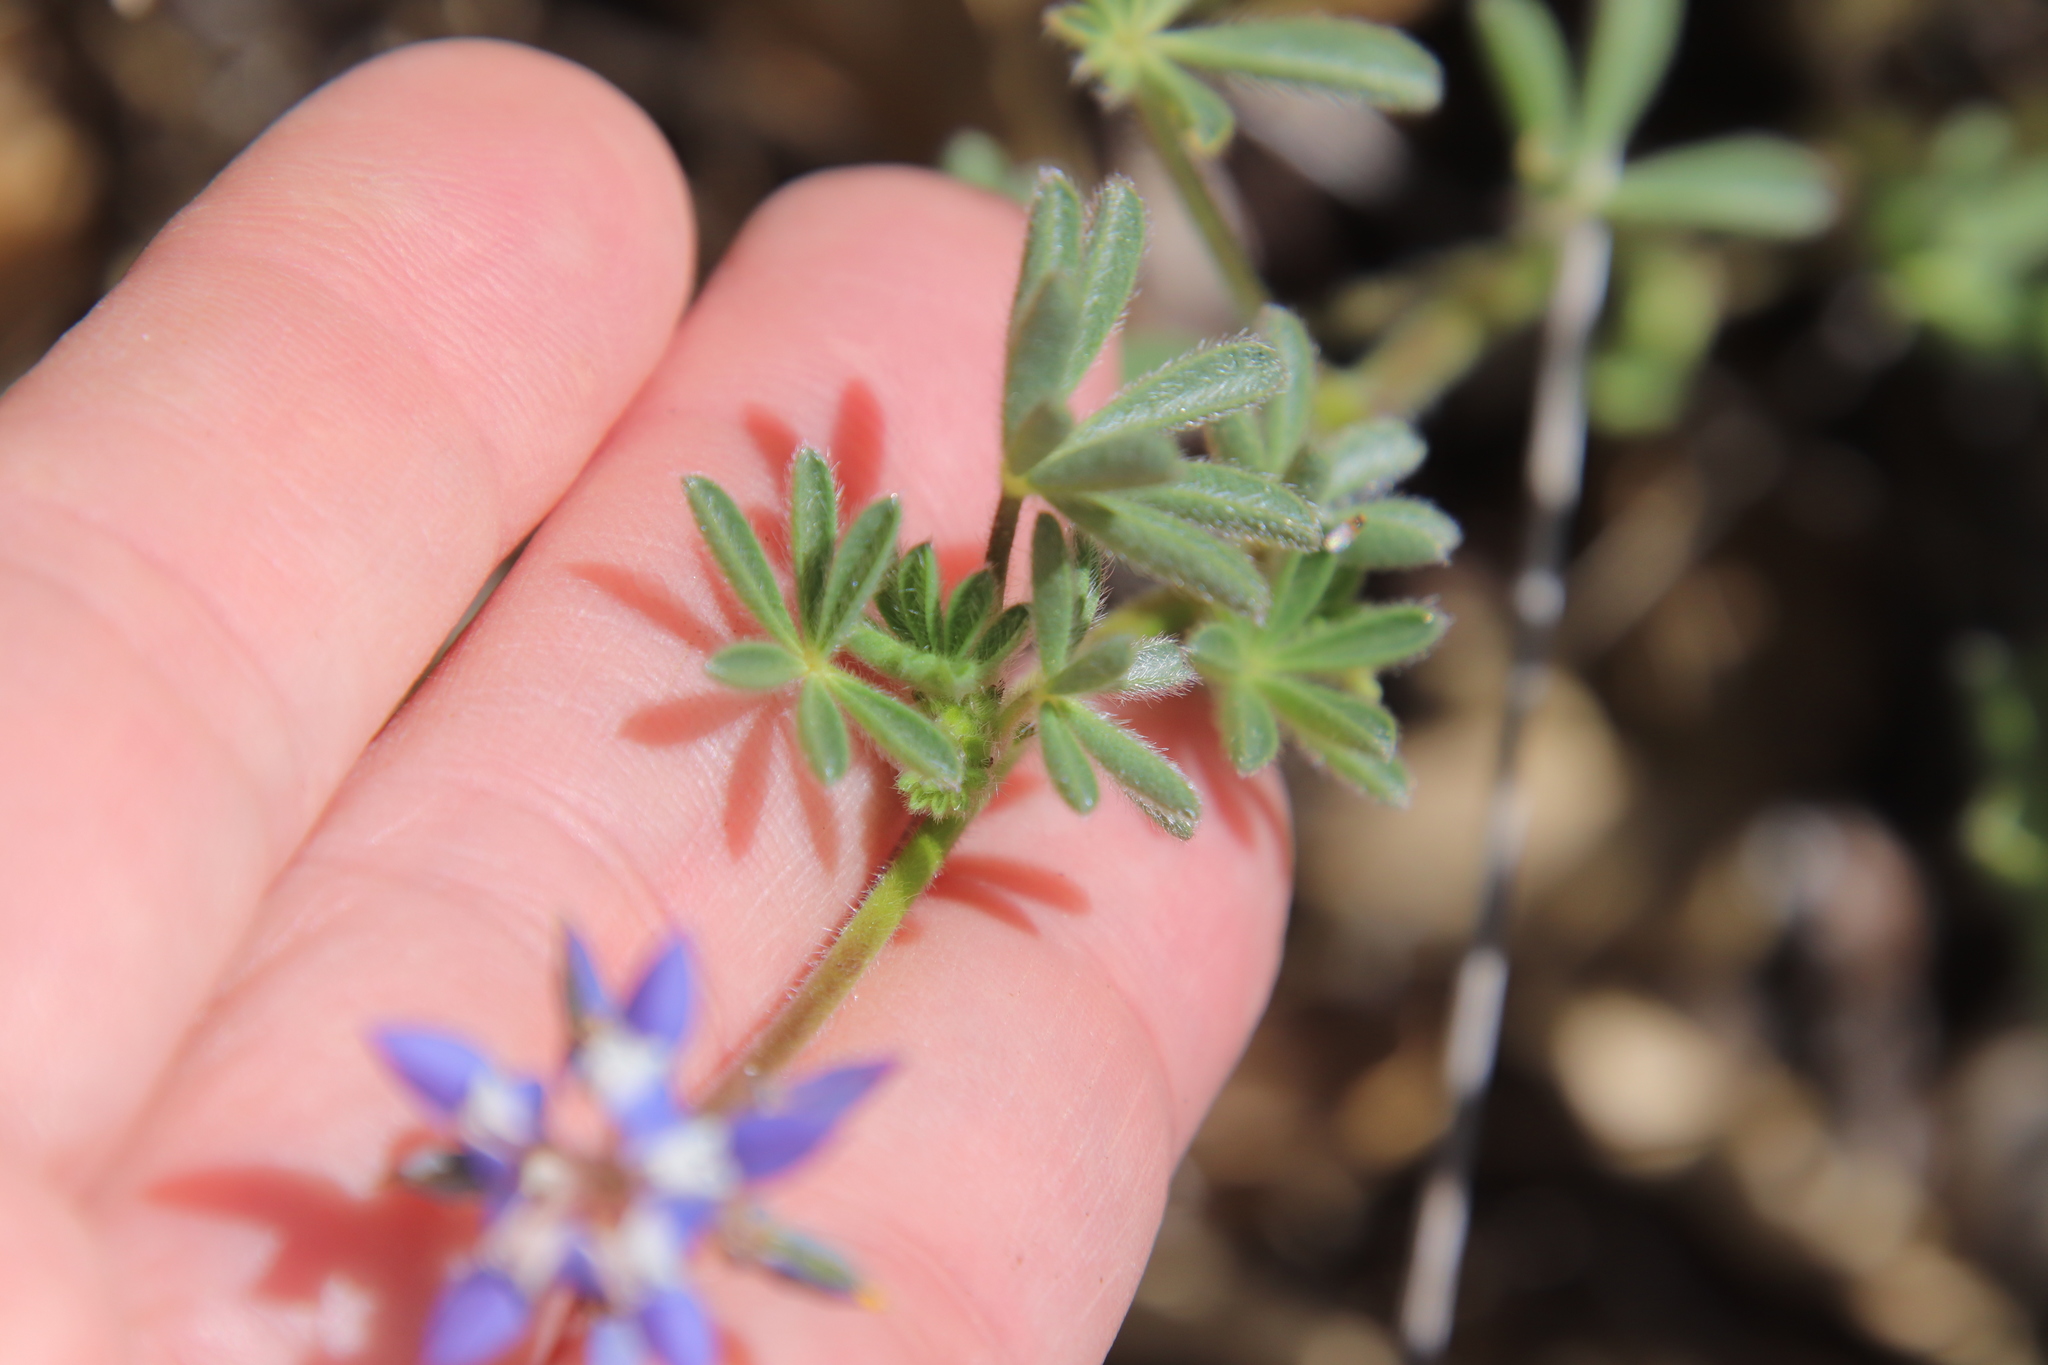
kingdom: Plantae
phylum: Tracheophyta
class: Magnoliopsida
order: Fabales
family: Fabaceae
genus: Lupinus
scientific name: Lupinus bicolor
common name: Miniature lupine
